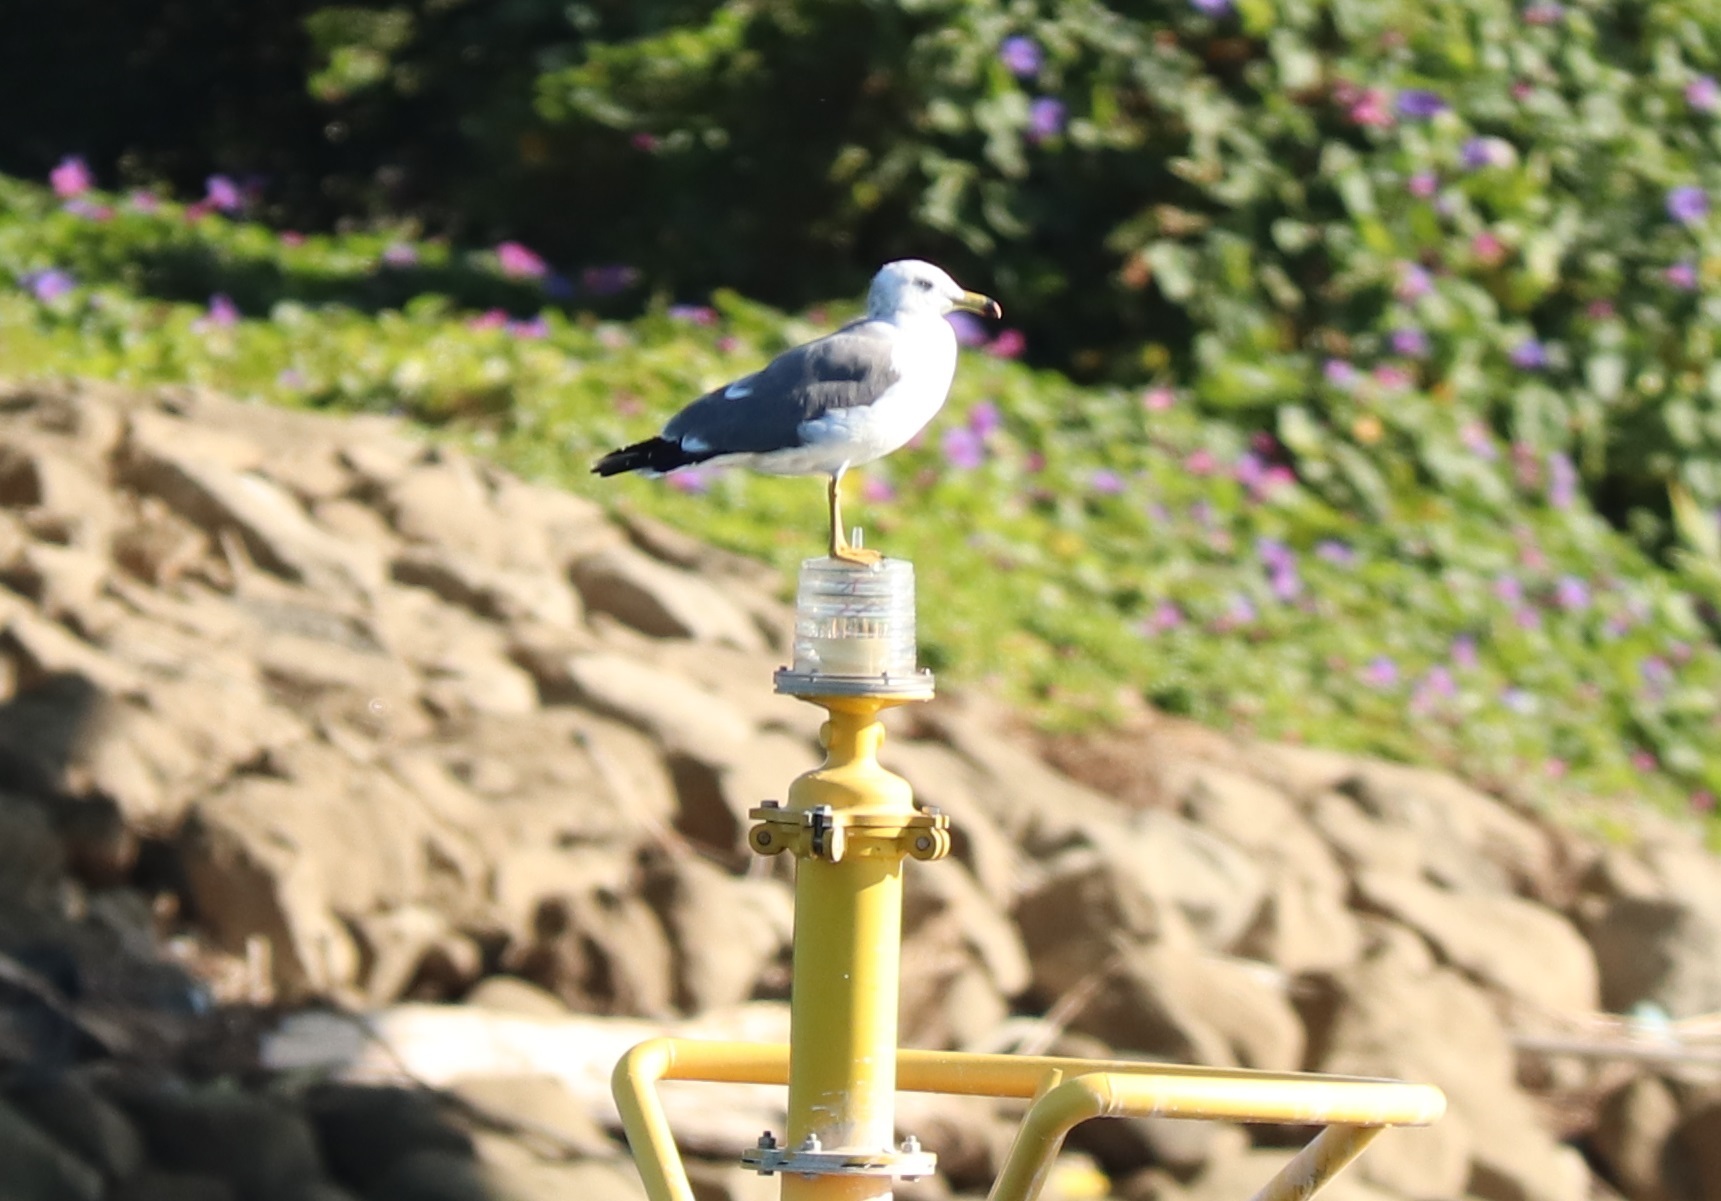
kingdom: Animalia
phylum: Chordata
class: Aves
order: Charadriiformes
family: Laridae
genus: Larus
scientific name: Larus crassirostris
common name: Black-tailed gull
